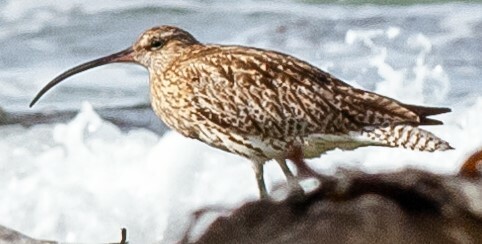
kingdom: Animalia
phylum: Chordata
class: Aves
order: Charadriiformes
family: Scolopacidae
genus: Numenius
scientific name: Numenius arquata
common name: Eurasian curlew
